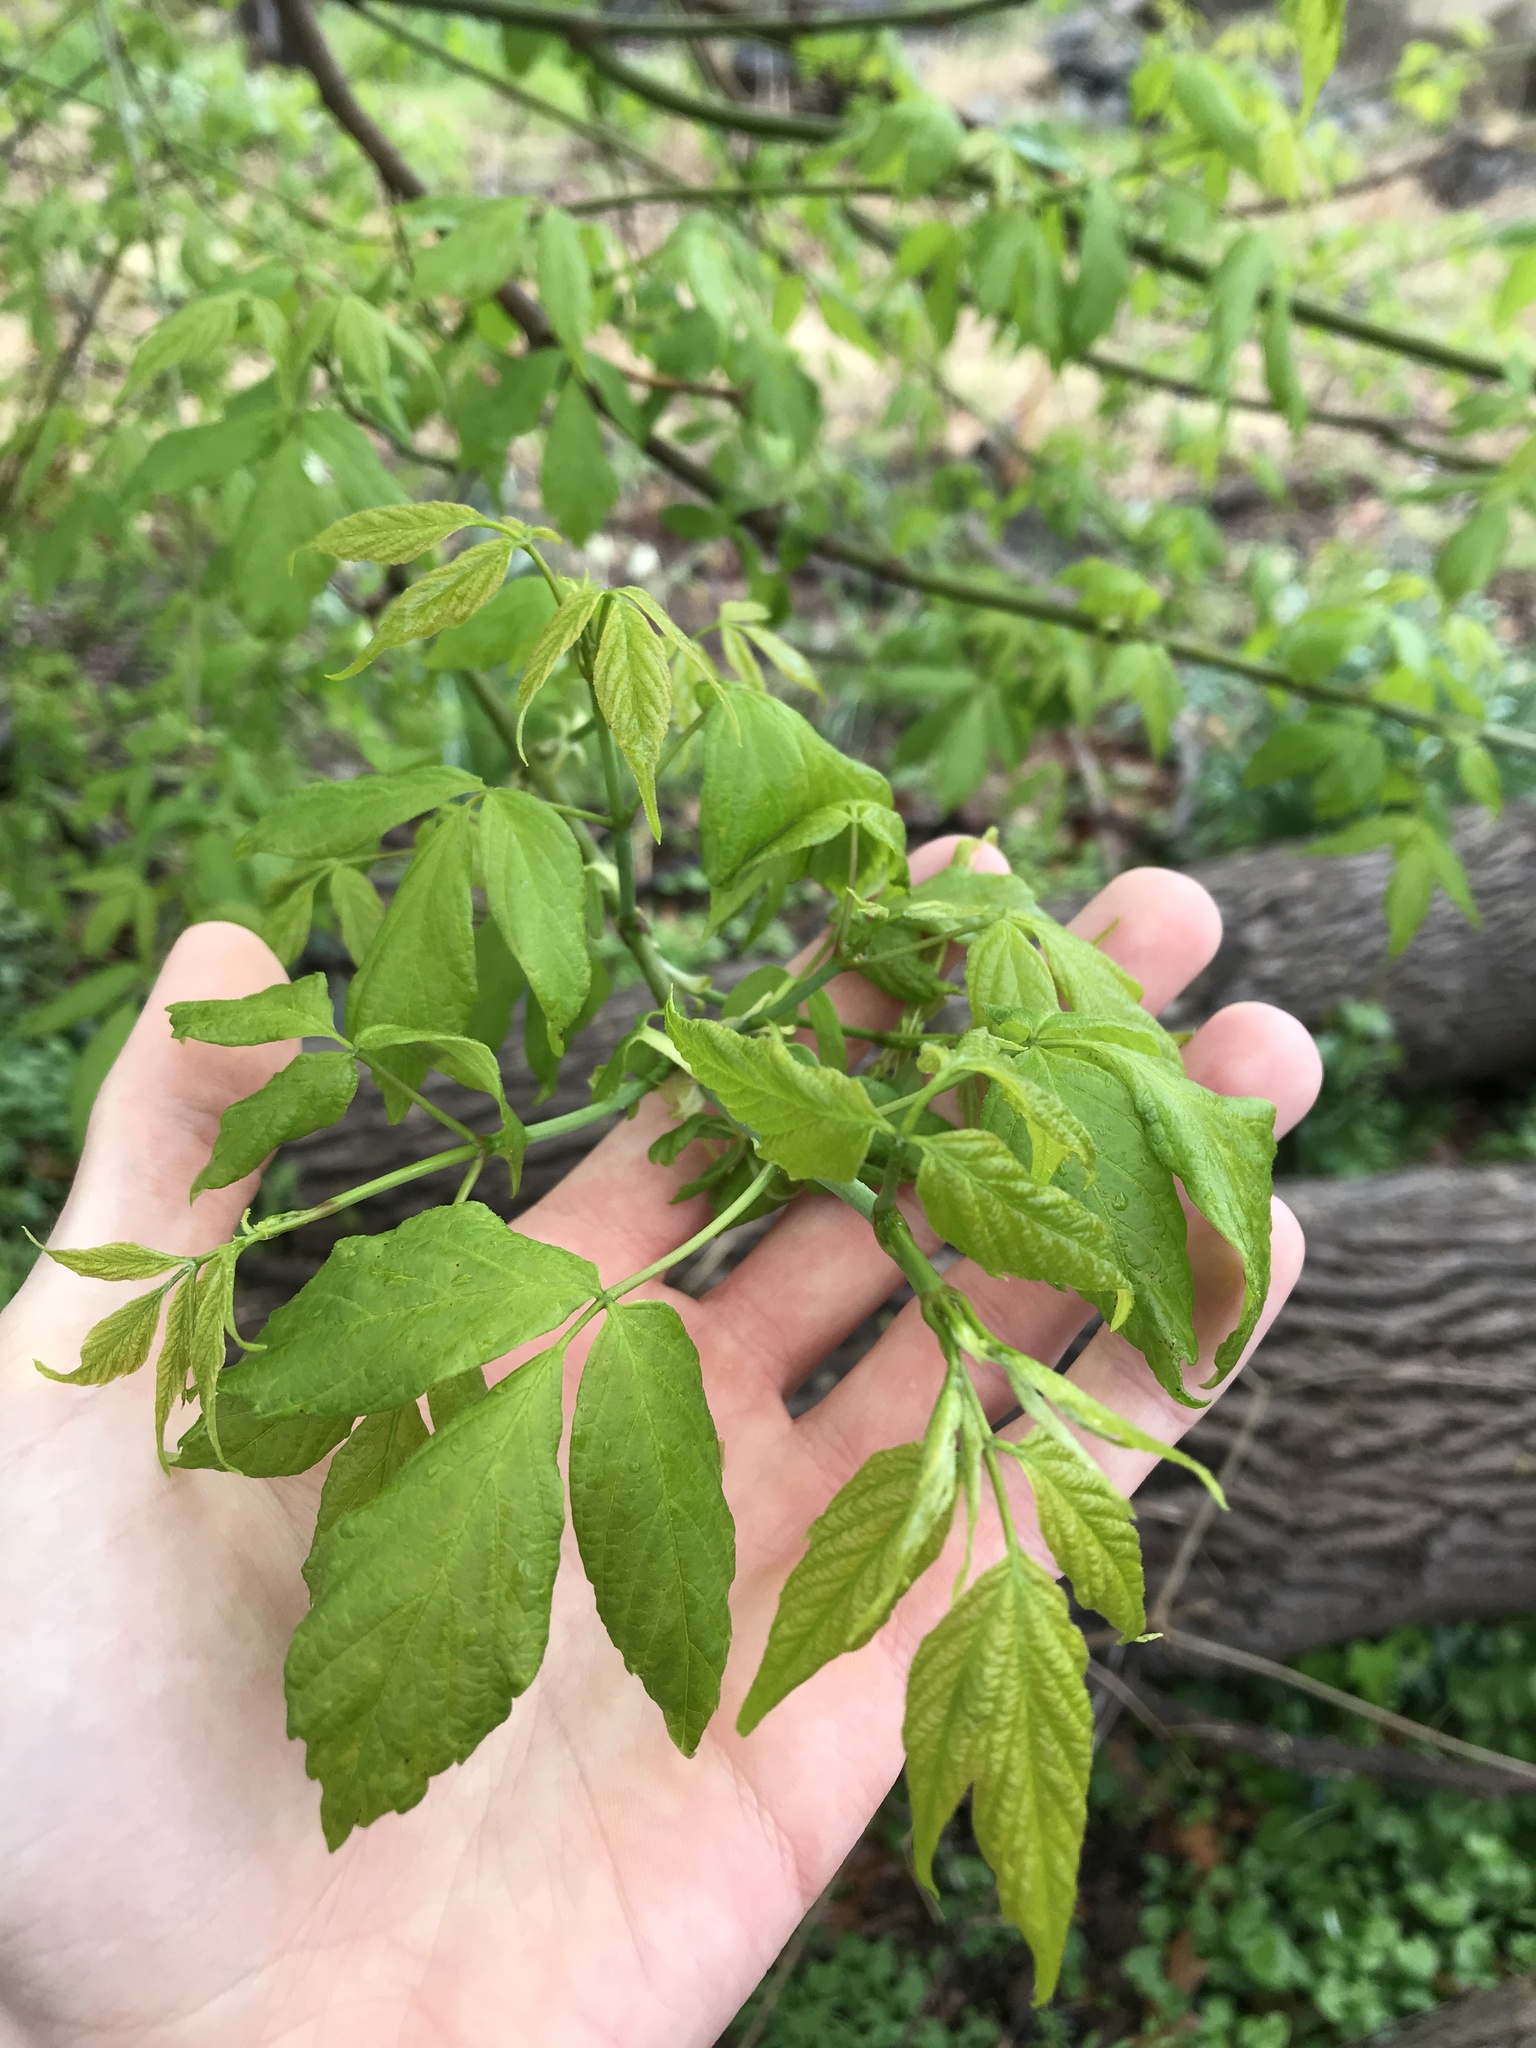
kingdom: Plantae
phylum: Tracheophyta
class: Magnoliopsida
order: Sapindales
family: Sapindaceae
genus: Acer
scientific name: Acer negundo
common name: Ashleaf maple
